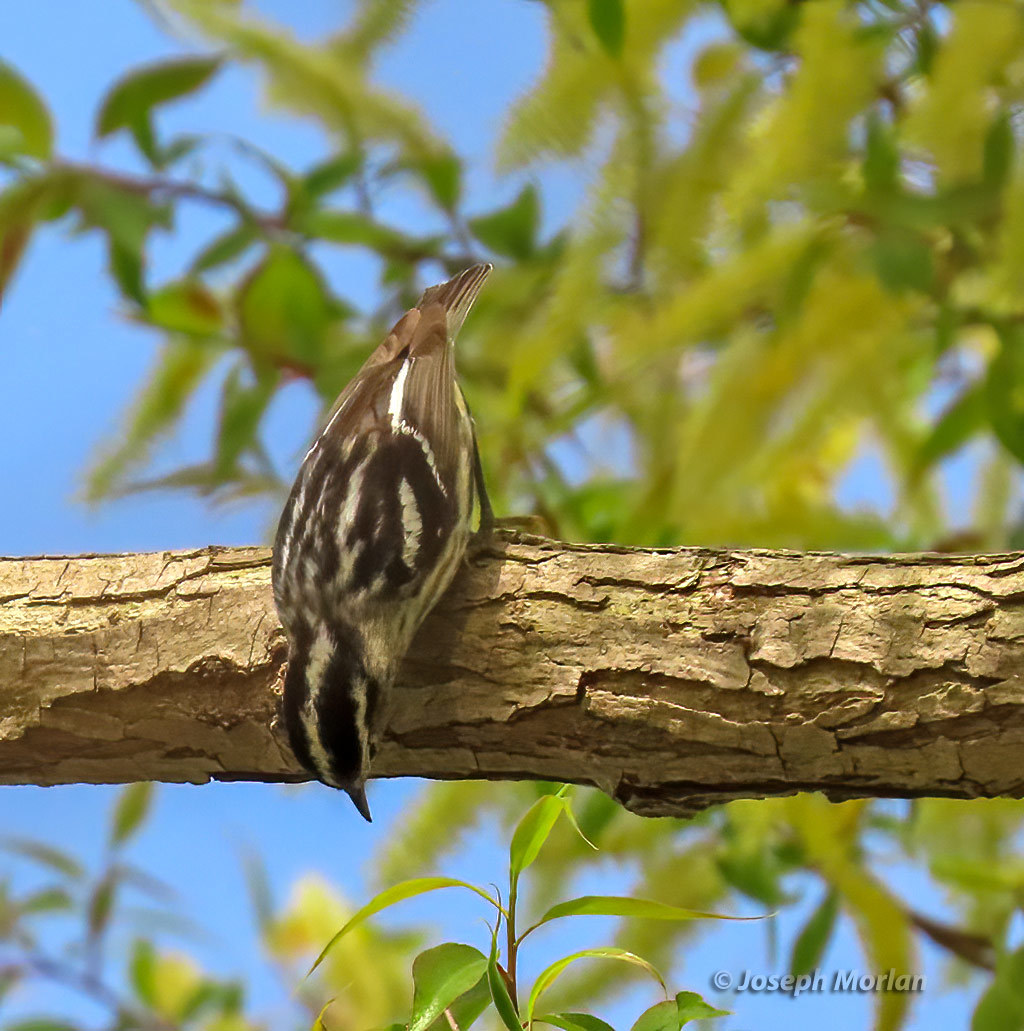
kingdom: Animalia
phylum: Chordata
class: Aves
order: Passeriformes
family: Parulidae
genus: Mniotilta
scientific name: Mniotilta varia
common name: Black-and-white warbler
